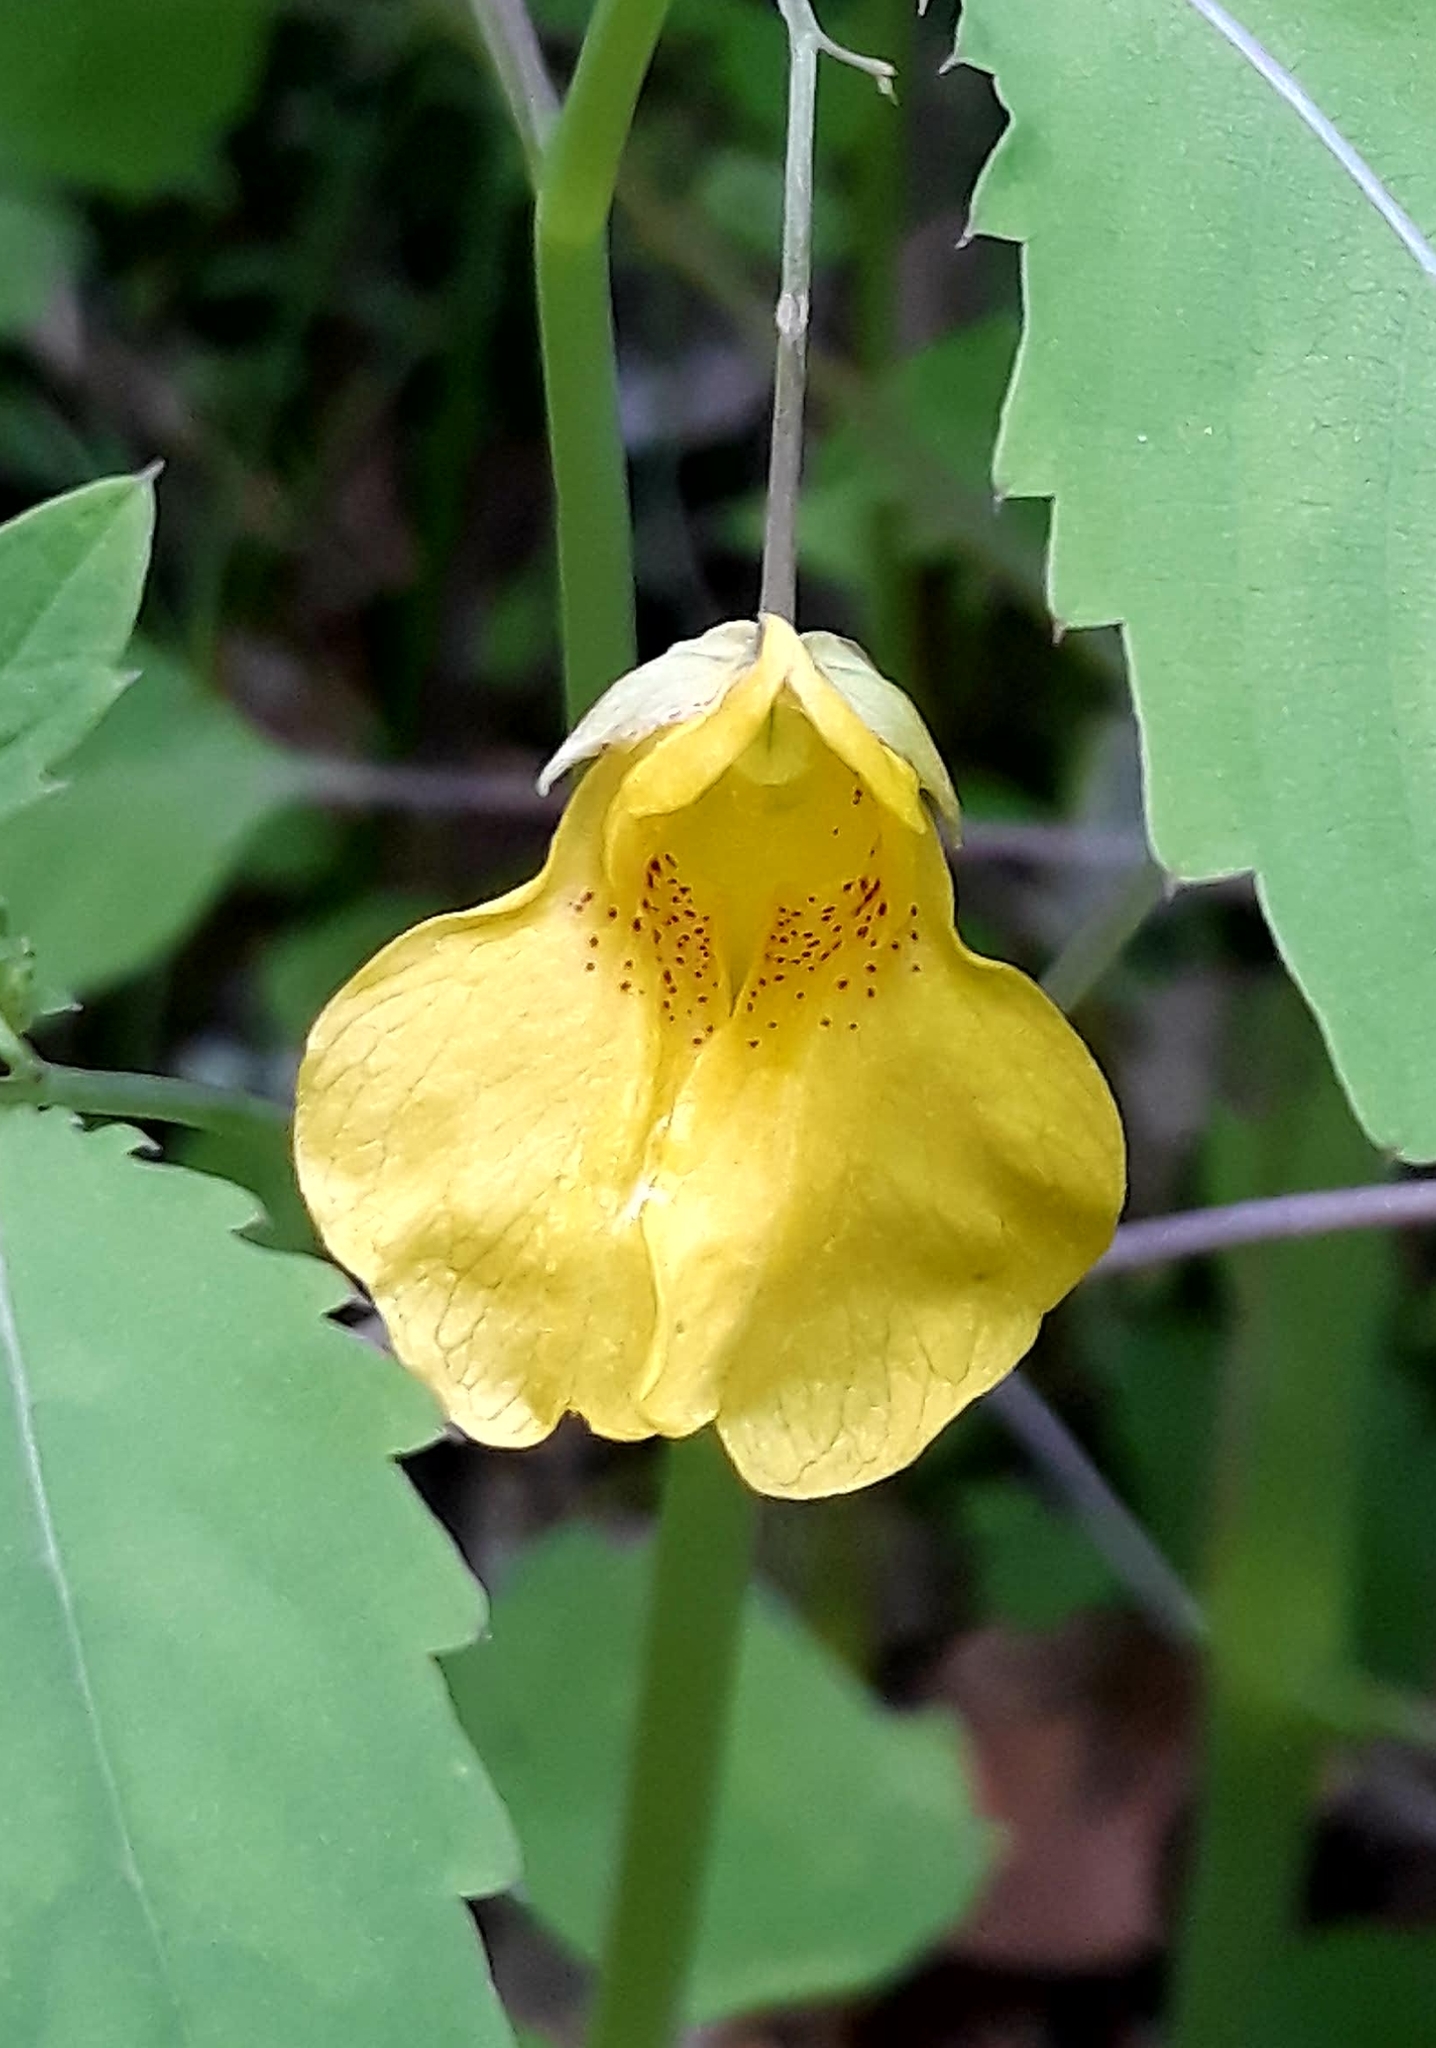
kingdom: Plantae
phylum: Tracheophyta
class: Magnoliopsida
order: Ericales
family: Balsaminaceae
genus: Impatiens
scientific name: Impatiens noli-tangere
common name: Touch-me-not balsam
